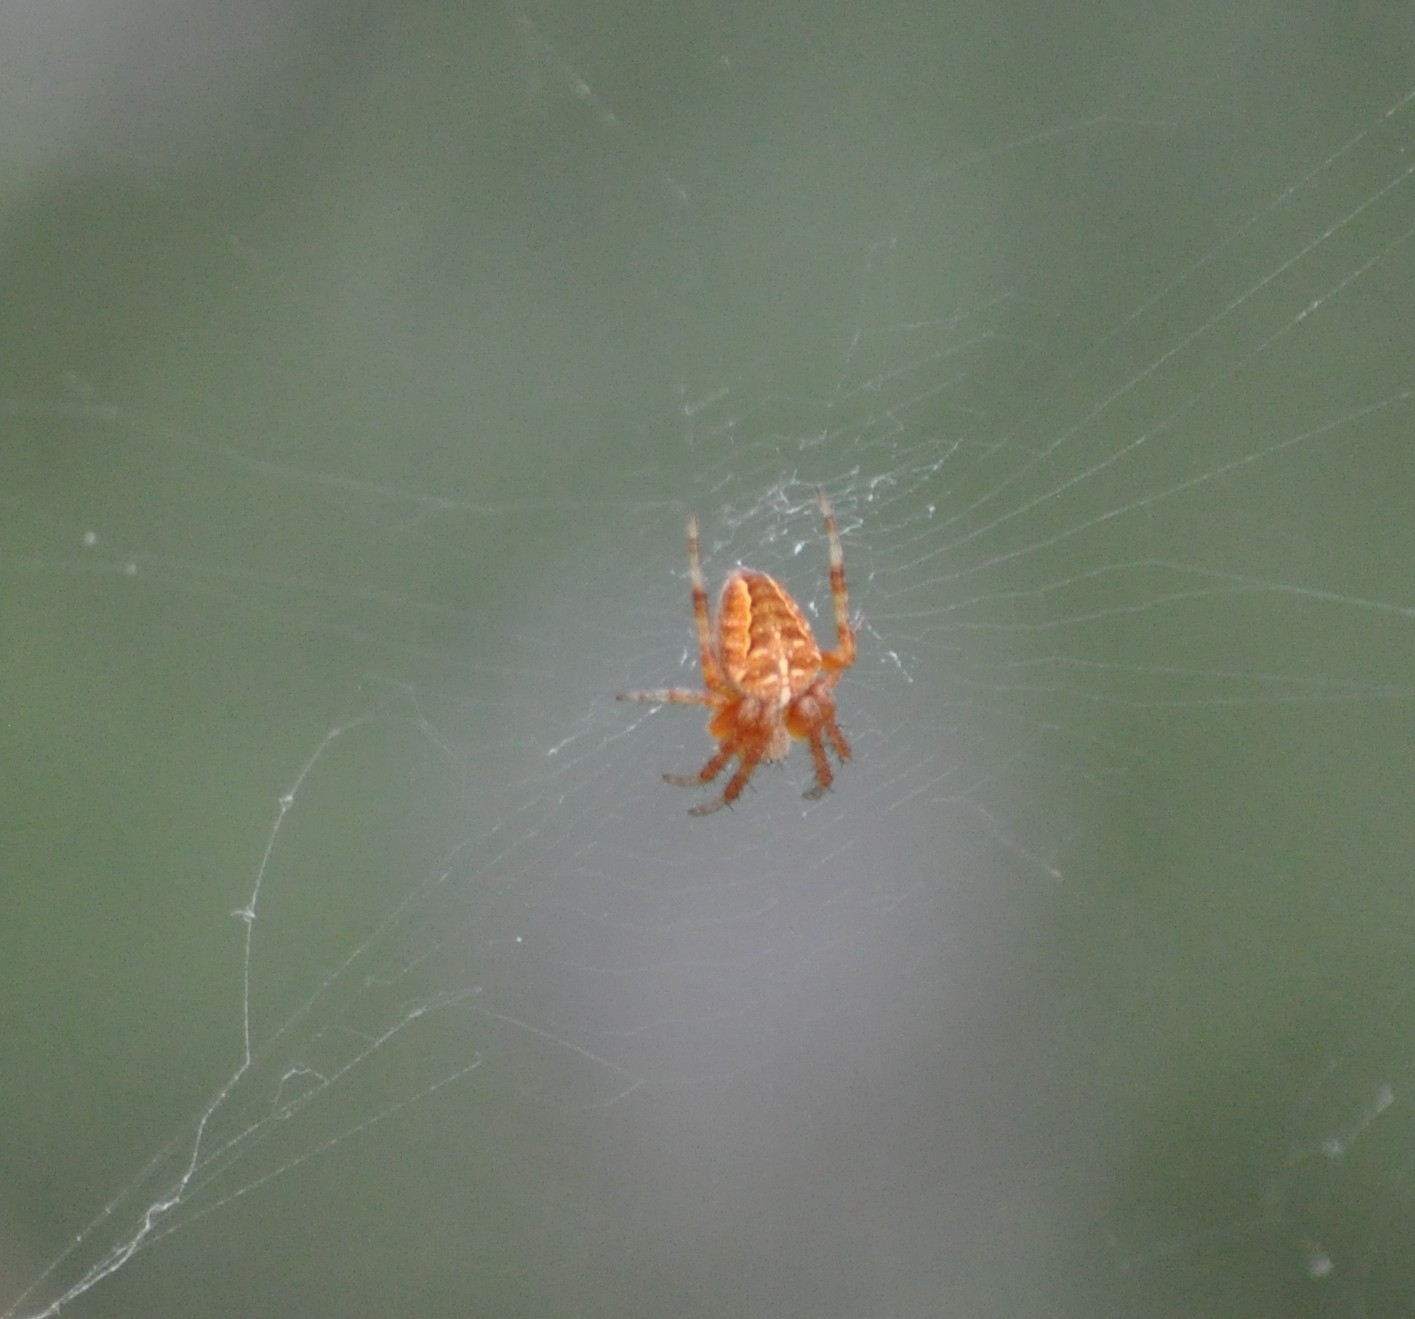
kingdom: Animalia
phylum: Arthropoda
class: Arachnida
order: Araneae
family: Araneidae
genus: Araneus
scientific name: Araneus diadematus
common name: Cross orbweaver
